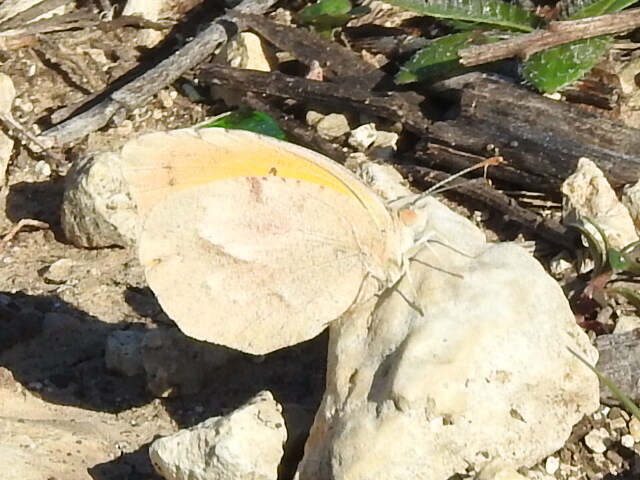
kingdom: Animalia
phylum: Arthropoda
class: Insecta
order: Lepidoptera
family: Pieridae
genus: Abaeis
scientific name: Abaeis nicippe
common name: Sleepy orange
